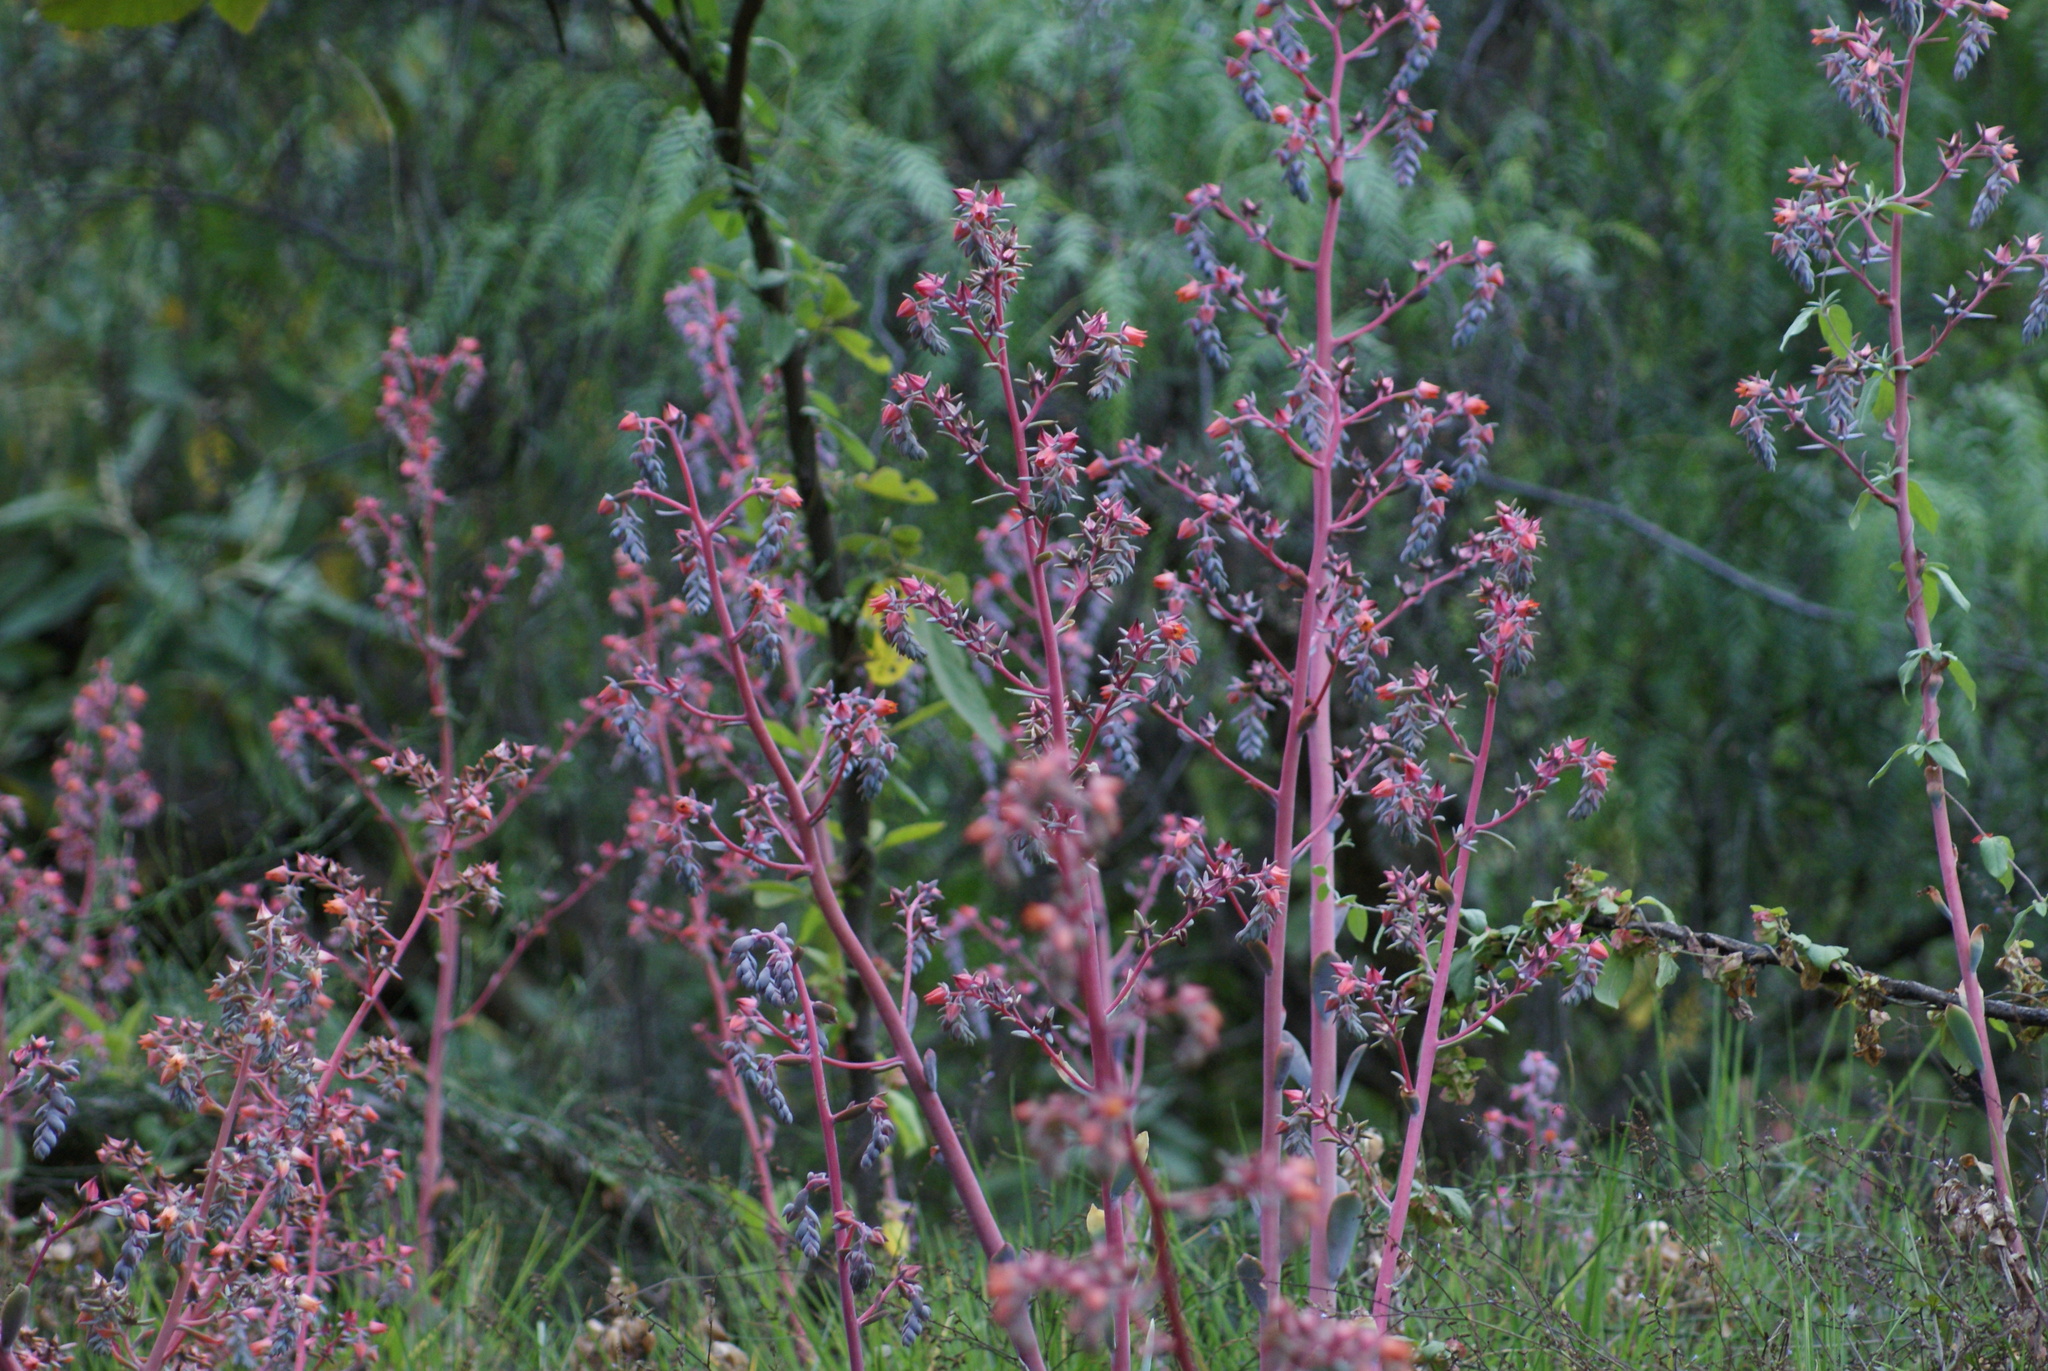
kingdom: Plantae
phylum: Tracheophyta
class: Magnoliopsida
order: Saxifragales
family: Crassulaceae
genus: Echeveria
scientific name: Echeveria gibbiflora
